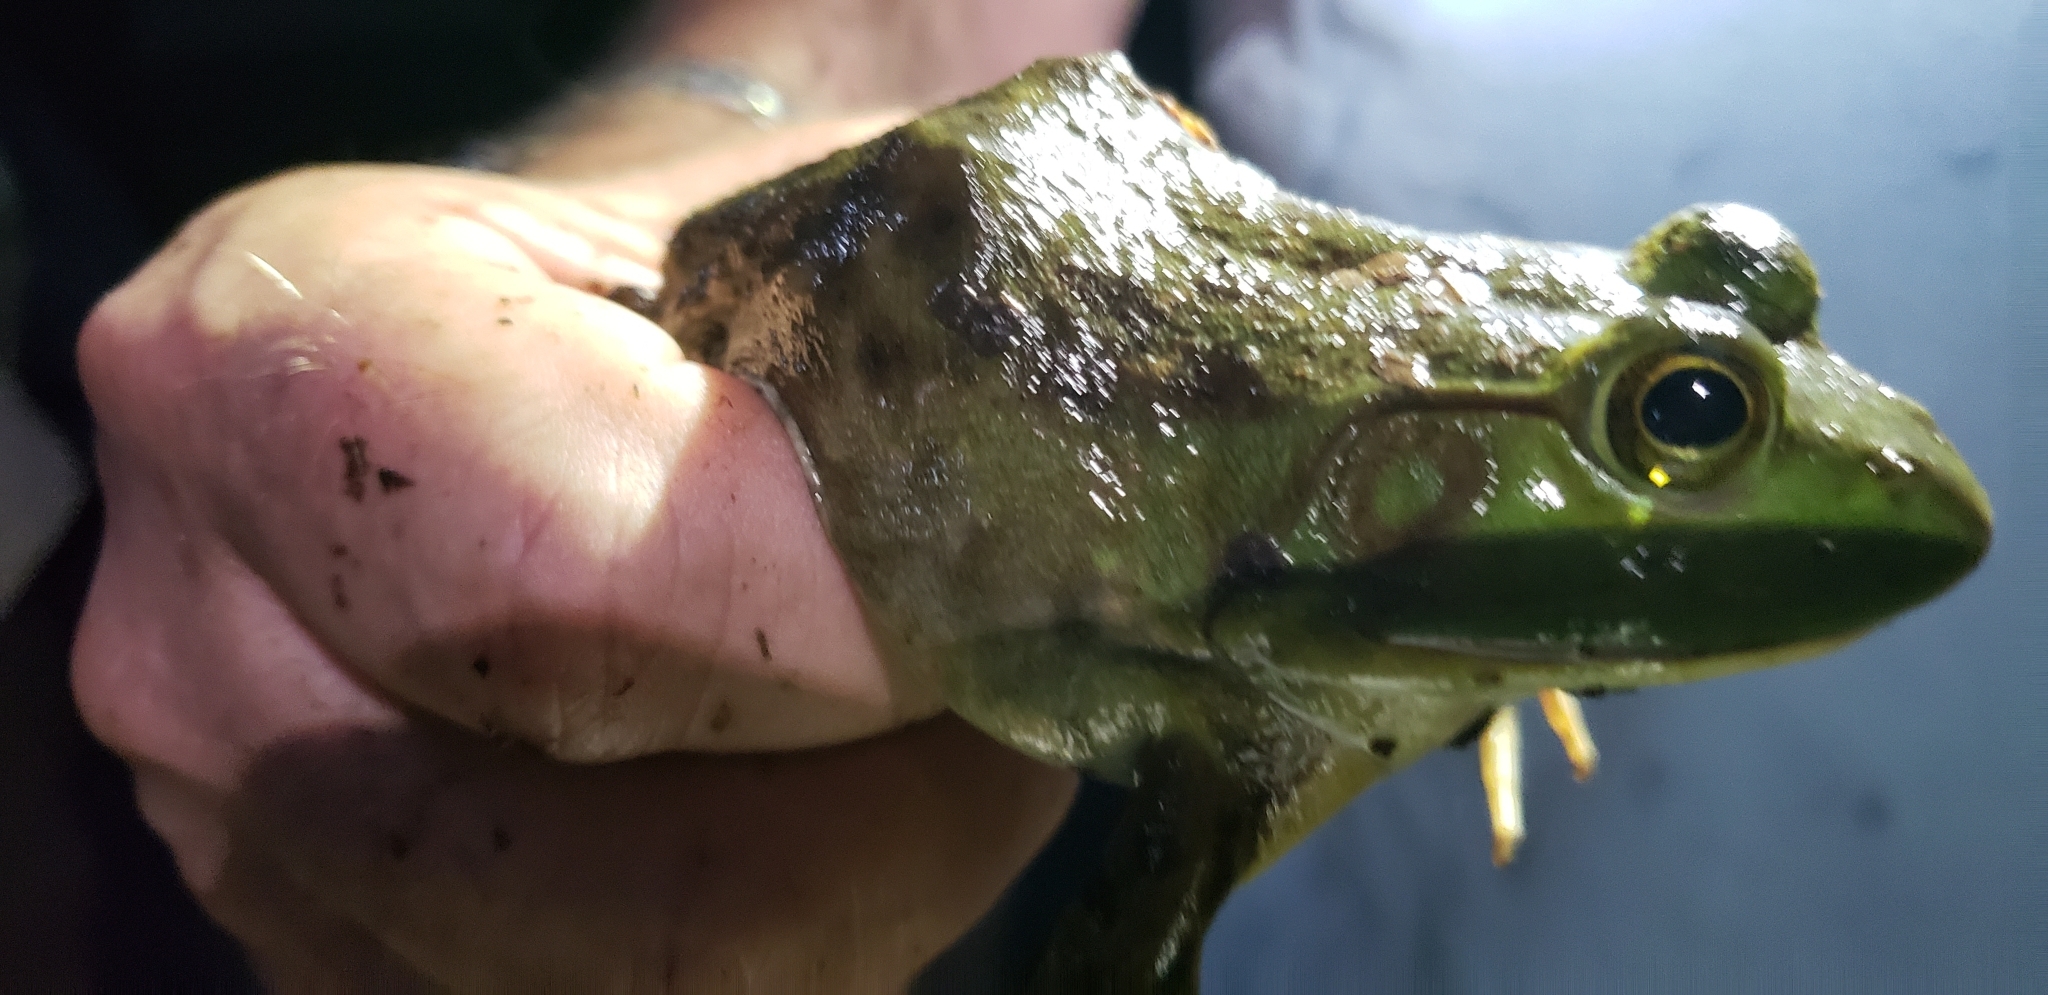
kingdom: Animalia
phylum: Chordata
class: Amphibia
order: Anura
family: Ranidae
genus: Lithobates
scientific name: Lithobates catesbeianus
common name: American bullfrog
